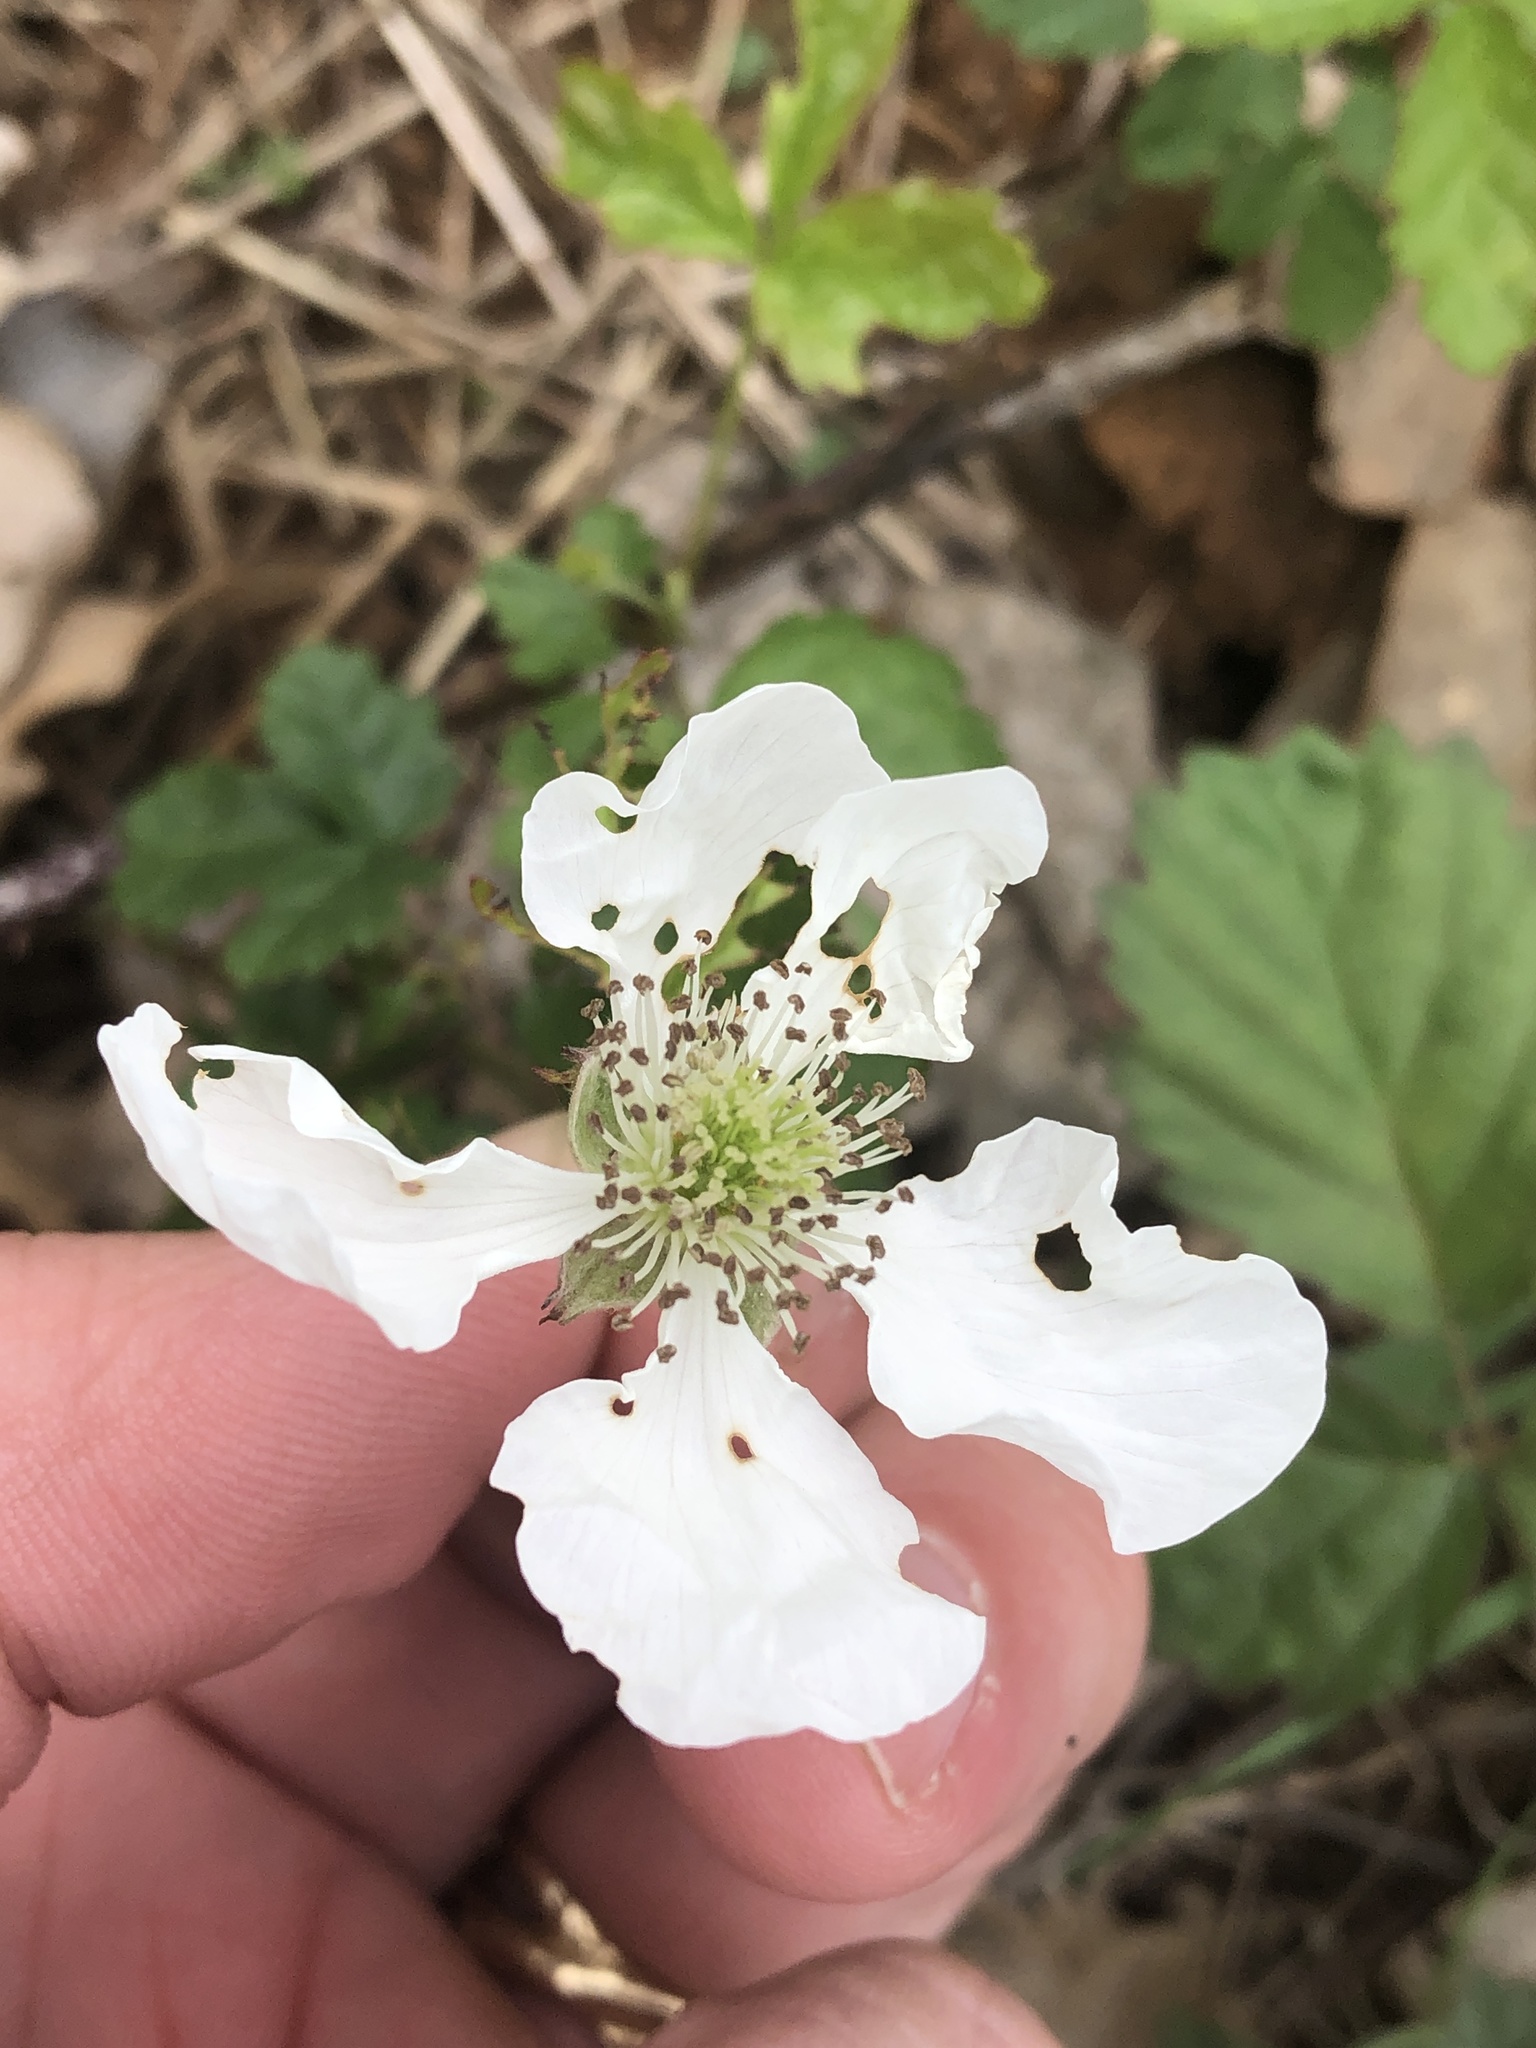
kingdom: Plantae
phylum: Tracheophyta
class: Magnoliopsida
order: Rosales
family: Rosaceae
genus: Rubus
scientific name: Rubus trivialis
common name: Southern dewberry
